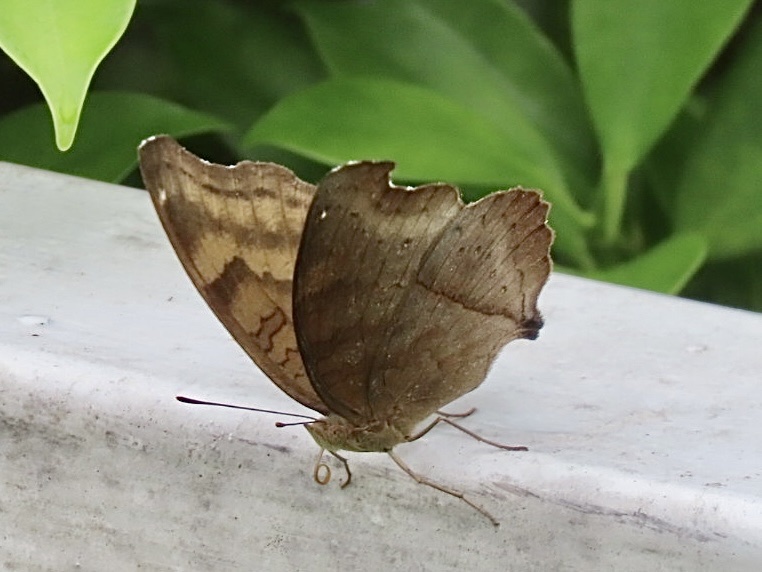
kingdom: Animalia
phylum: Arthropoda
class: Insecta
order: Lepidoptera
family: Nymphalidae
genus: Junonia
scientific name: Junonia iphita
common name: Chocolate pansy
